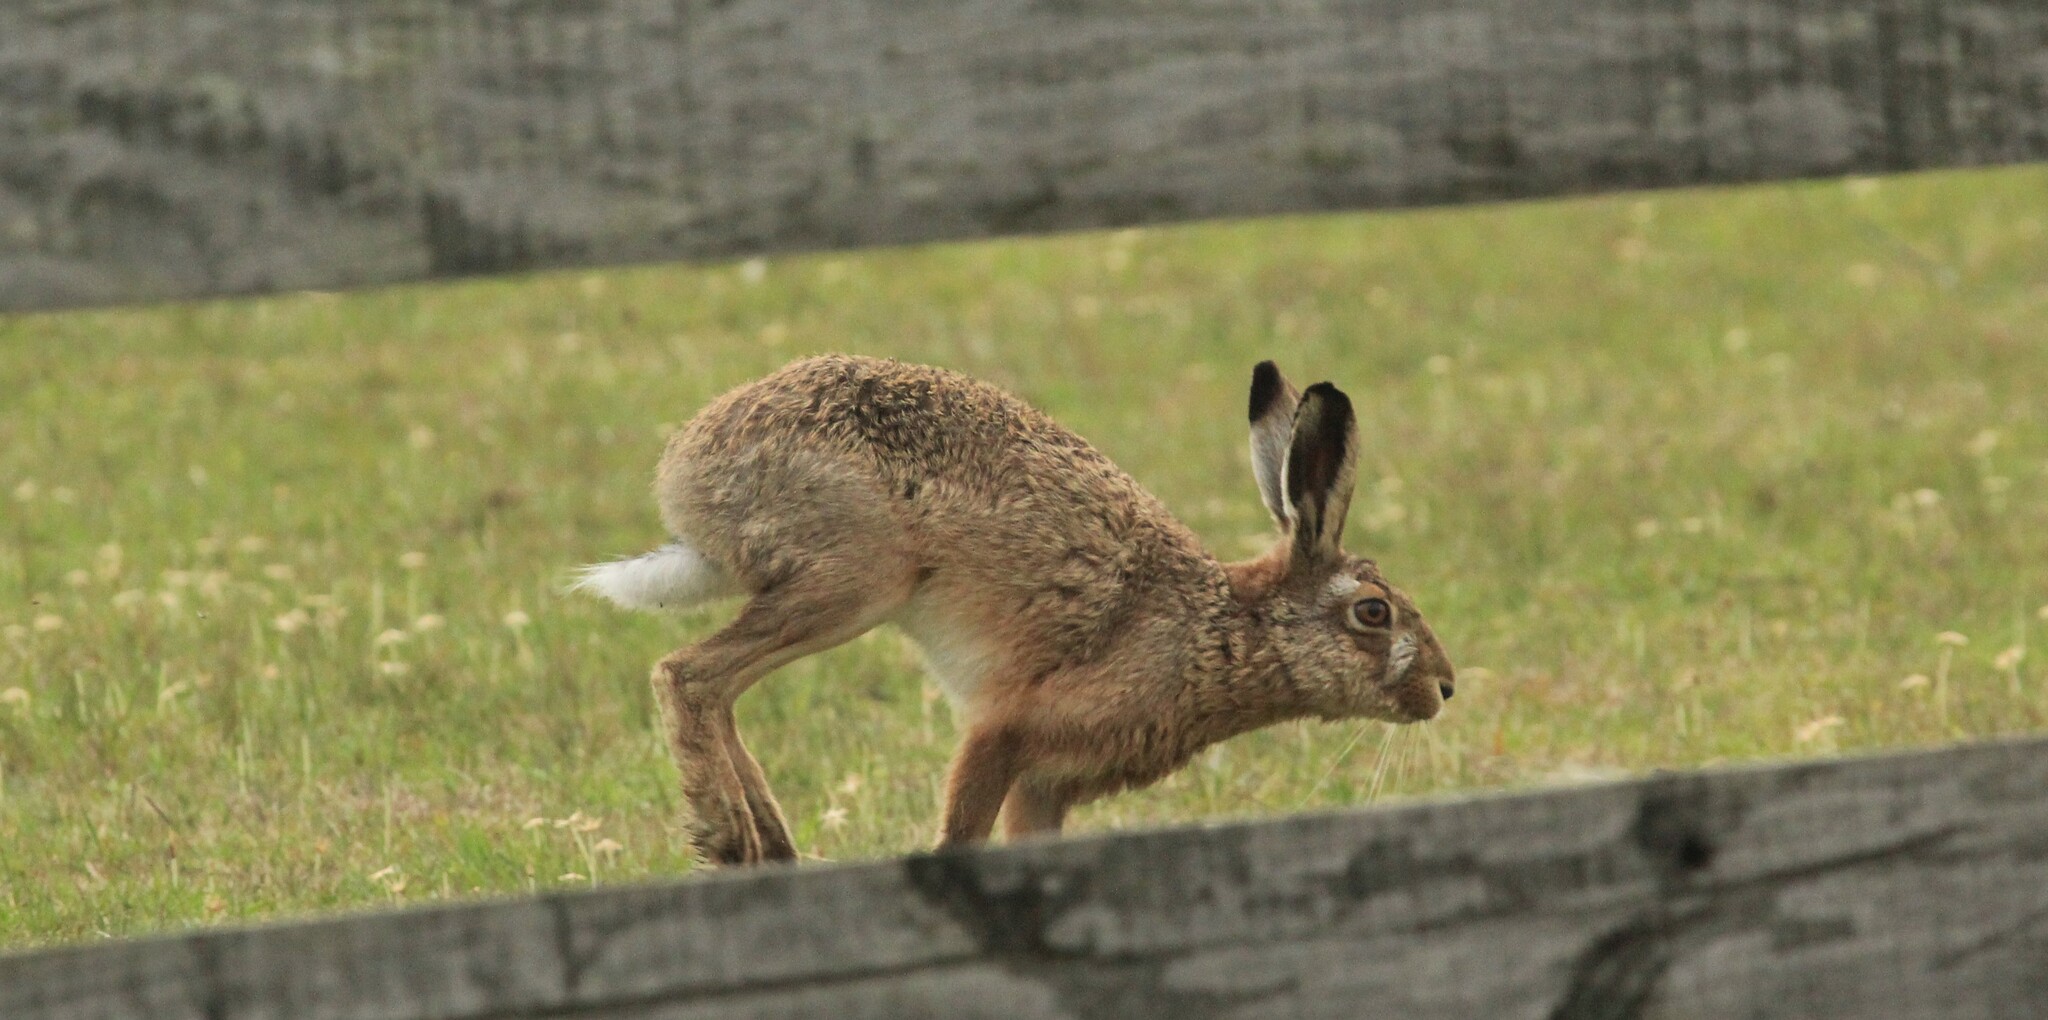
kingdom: Animalia
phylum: Chordata
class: Mammalia
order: Lagomorpha
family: Leporidae
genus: Lepus
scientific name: Lepus europaeus
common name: European hare
